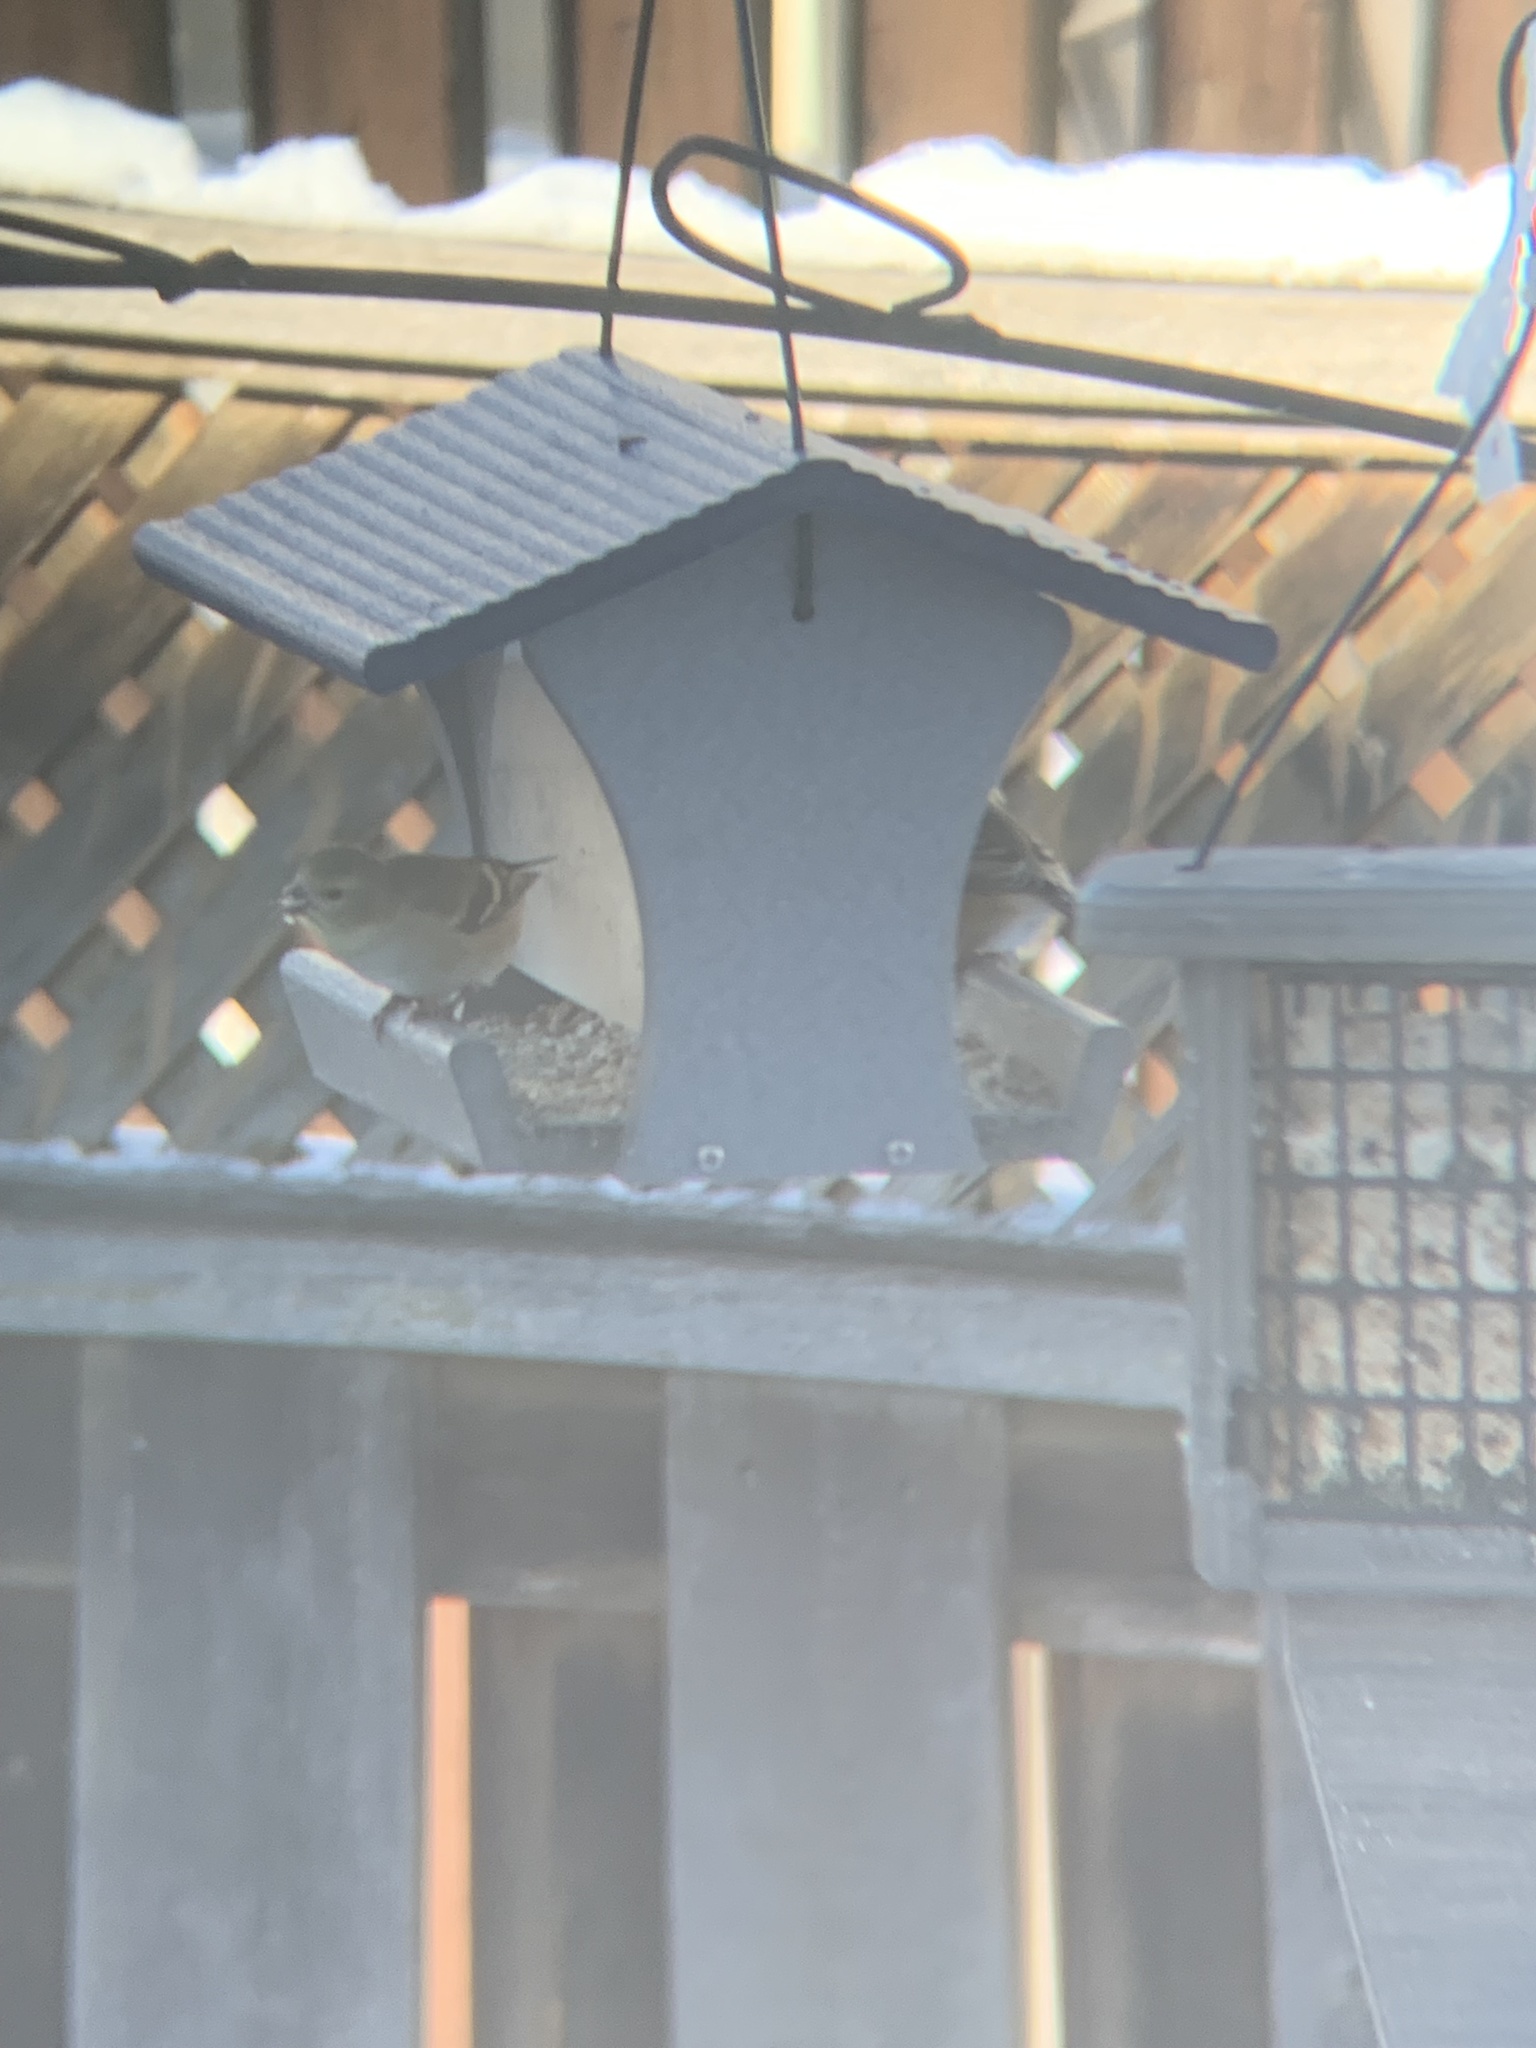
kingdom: Animalia
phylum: Chordata
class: Aves
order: Passeriformes
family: Fringillidae
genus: Spinus
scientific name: Spinus tristis
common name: American goldfinch
